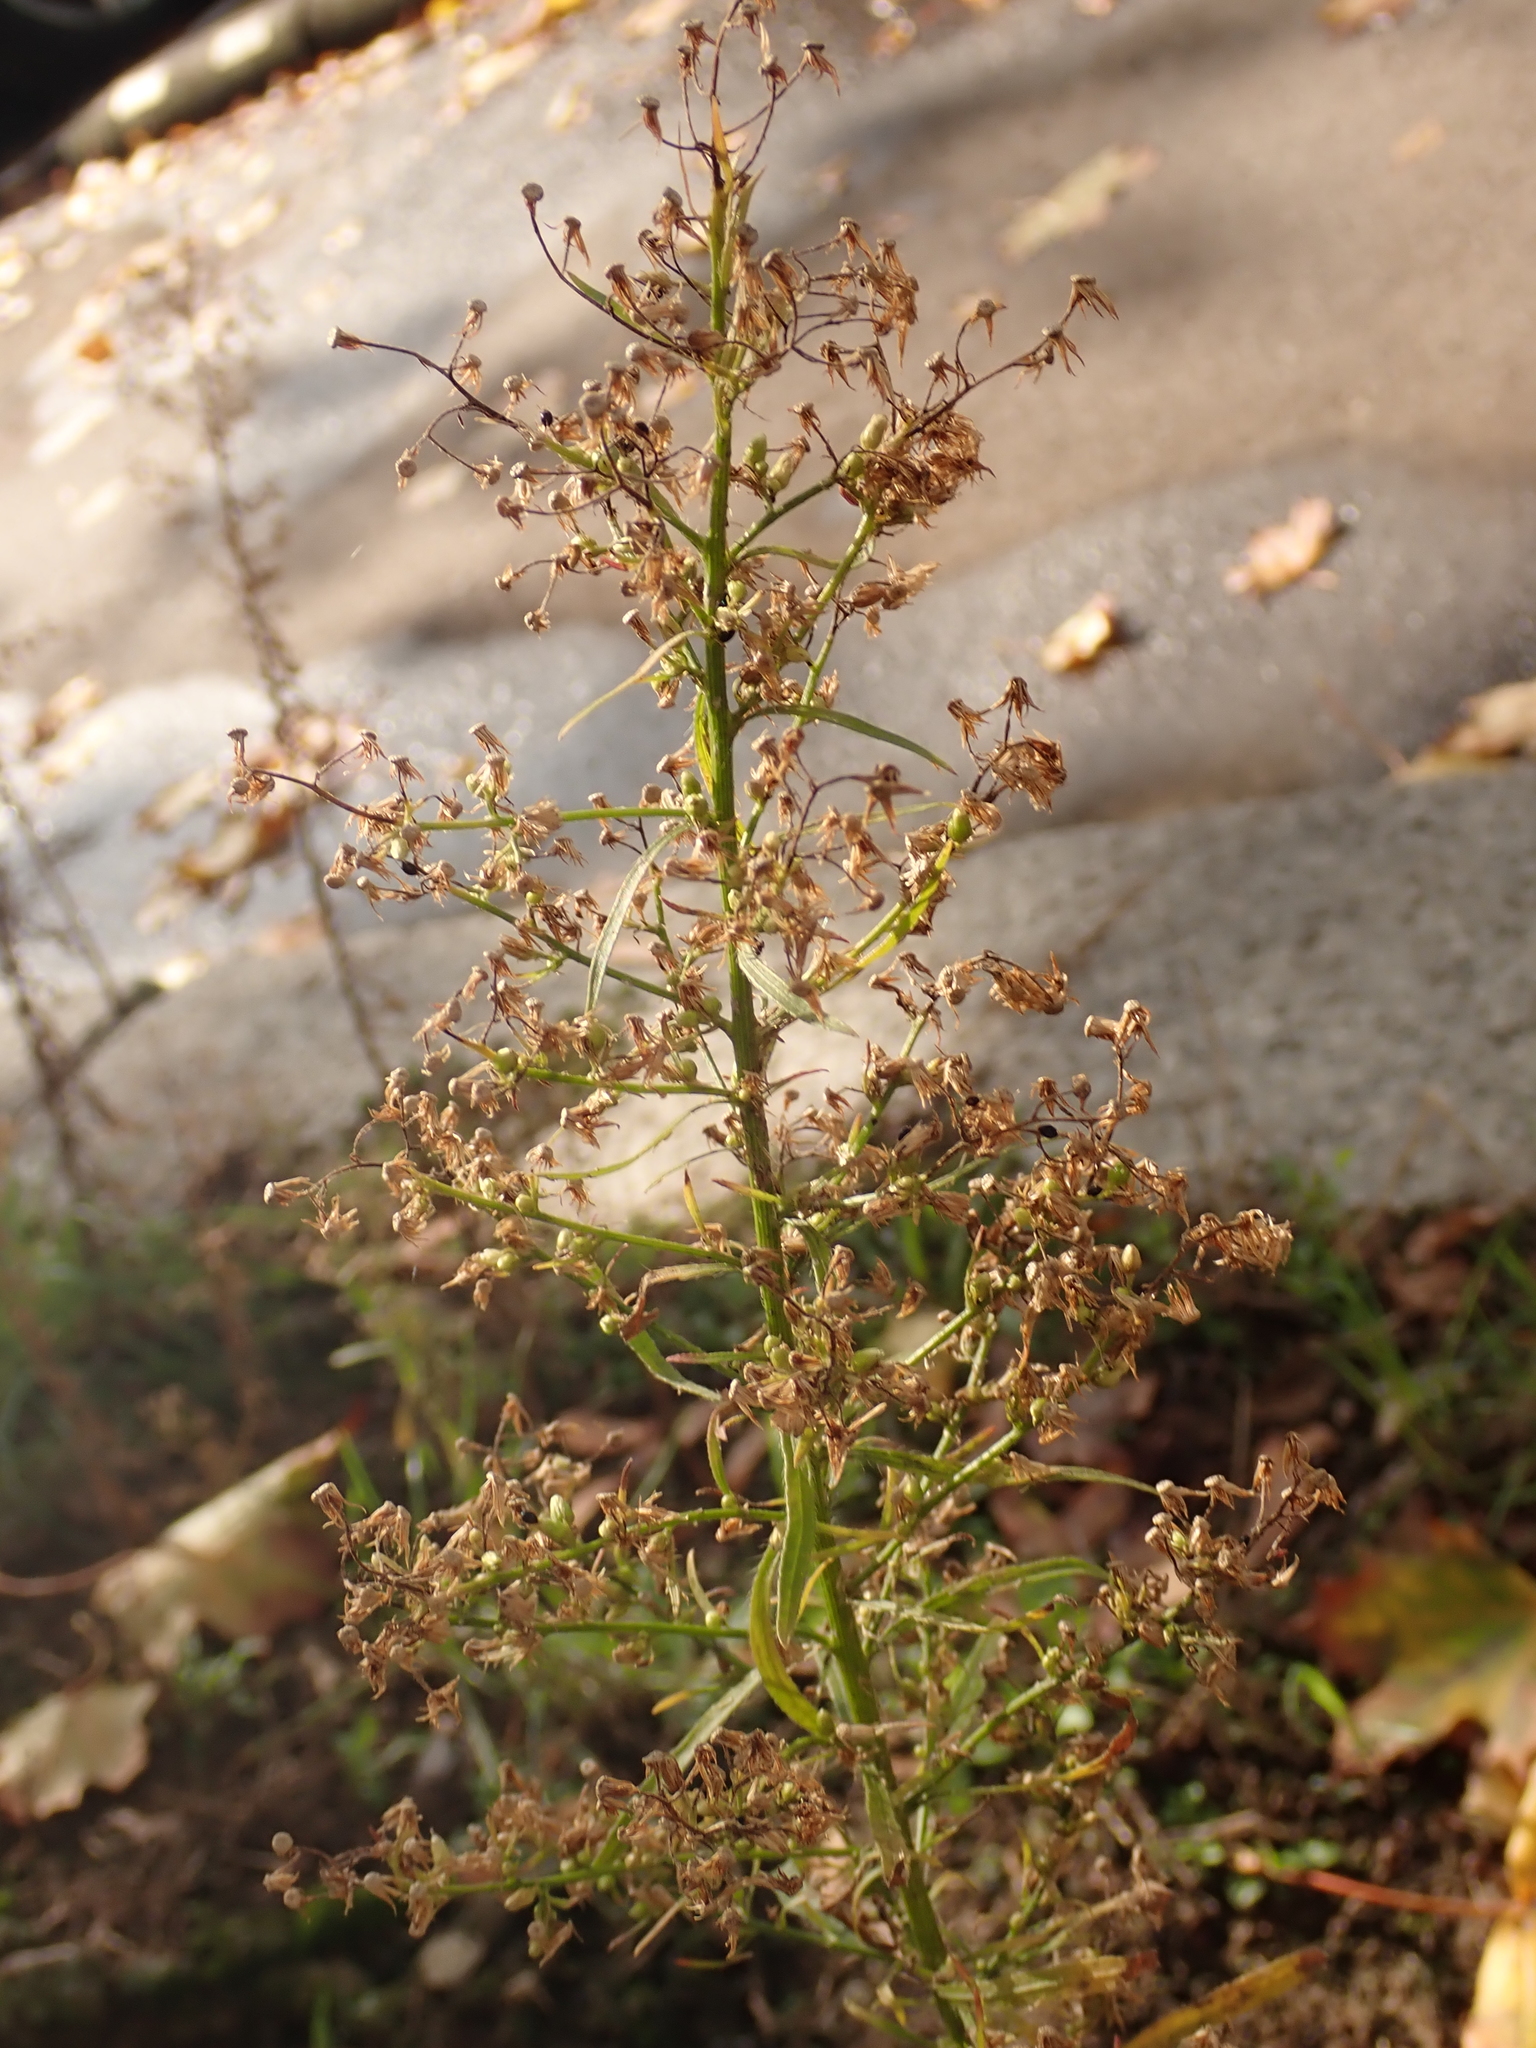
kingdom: Plantae
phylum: Tracheophyta
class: Magnoliopsida
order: Asterales
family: Asteraceae
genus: Erigeron
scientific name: Erigeron canadensis
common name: Canadian fleabane
